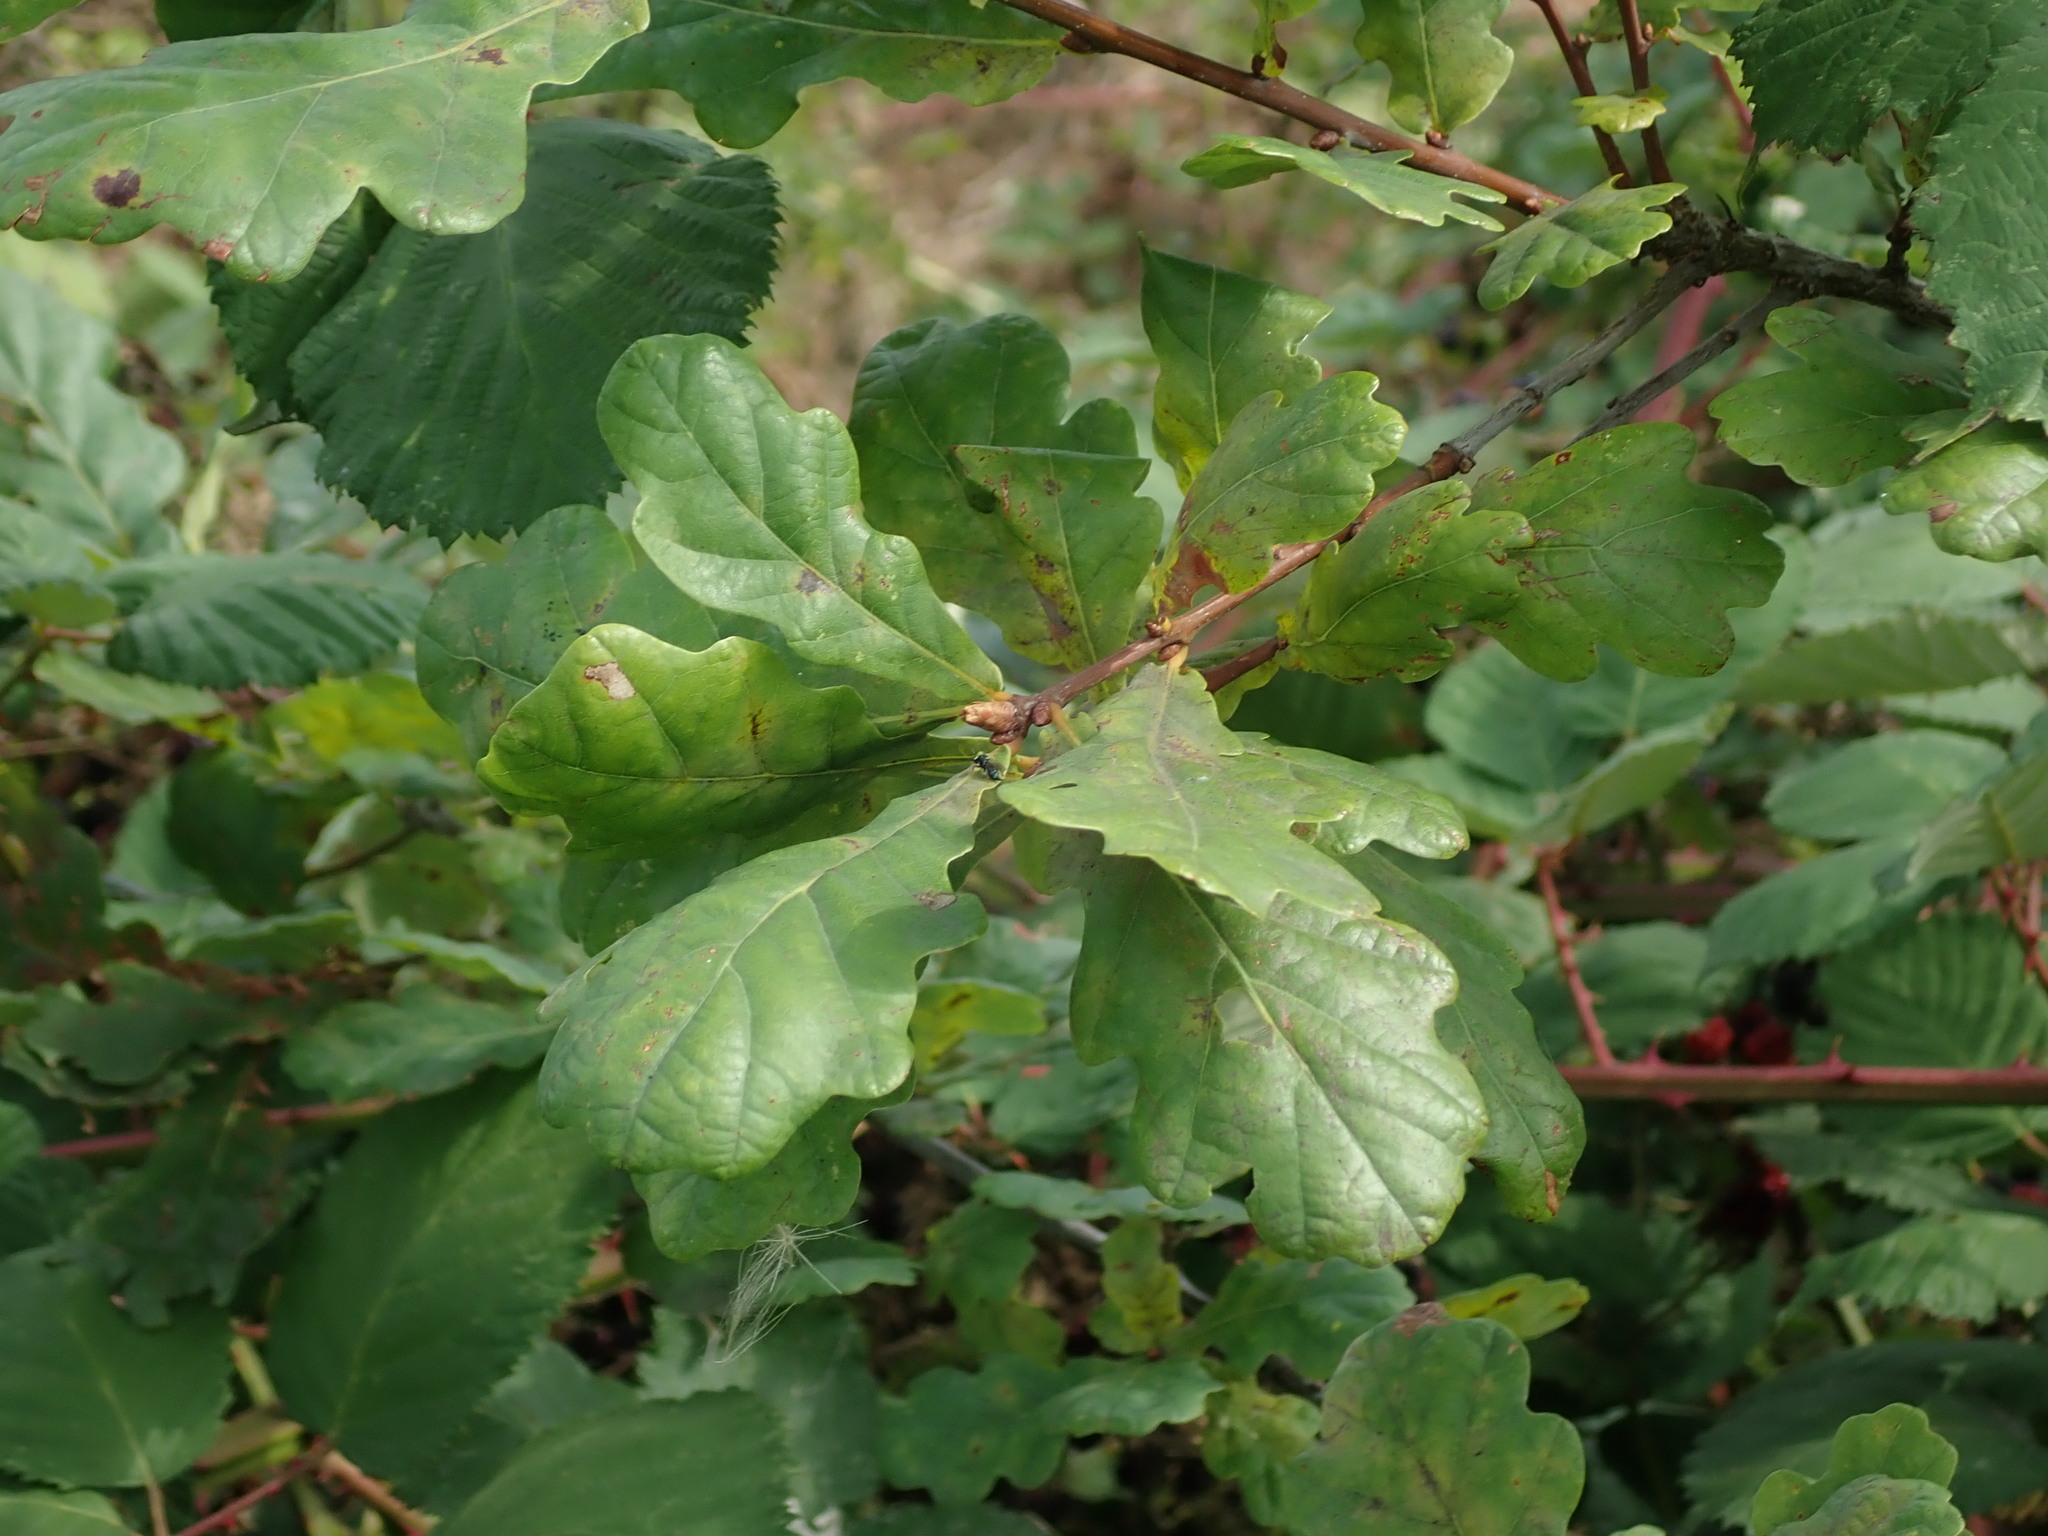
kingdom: Plantae
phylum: Tracheophyta
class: Magnoliopsida
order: Fagales
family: Fagaceae
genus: Quercus
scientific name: Quercus robur
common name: Pedunculate oak
